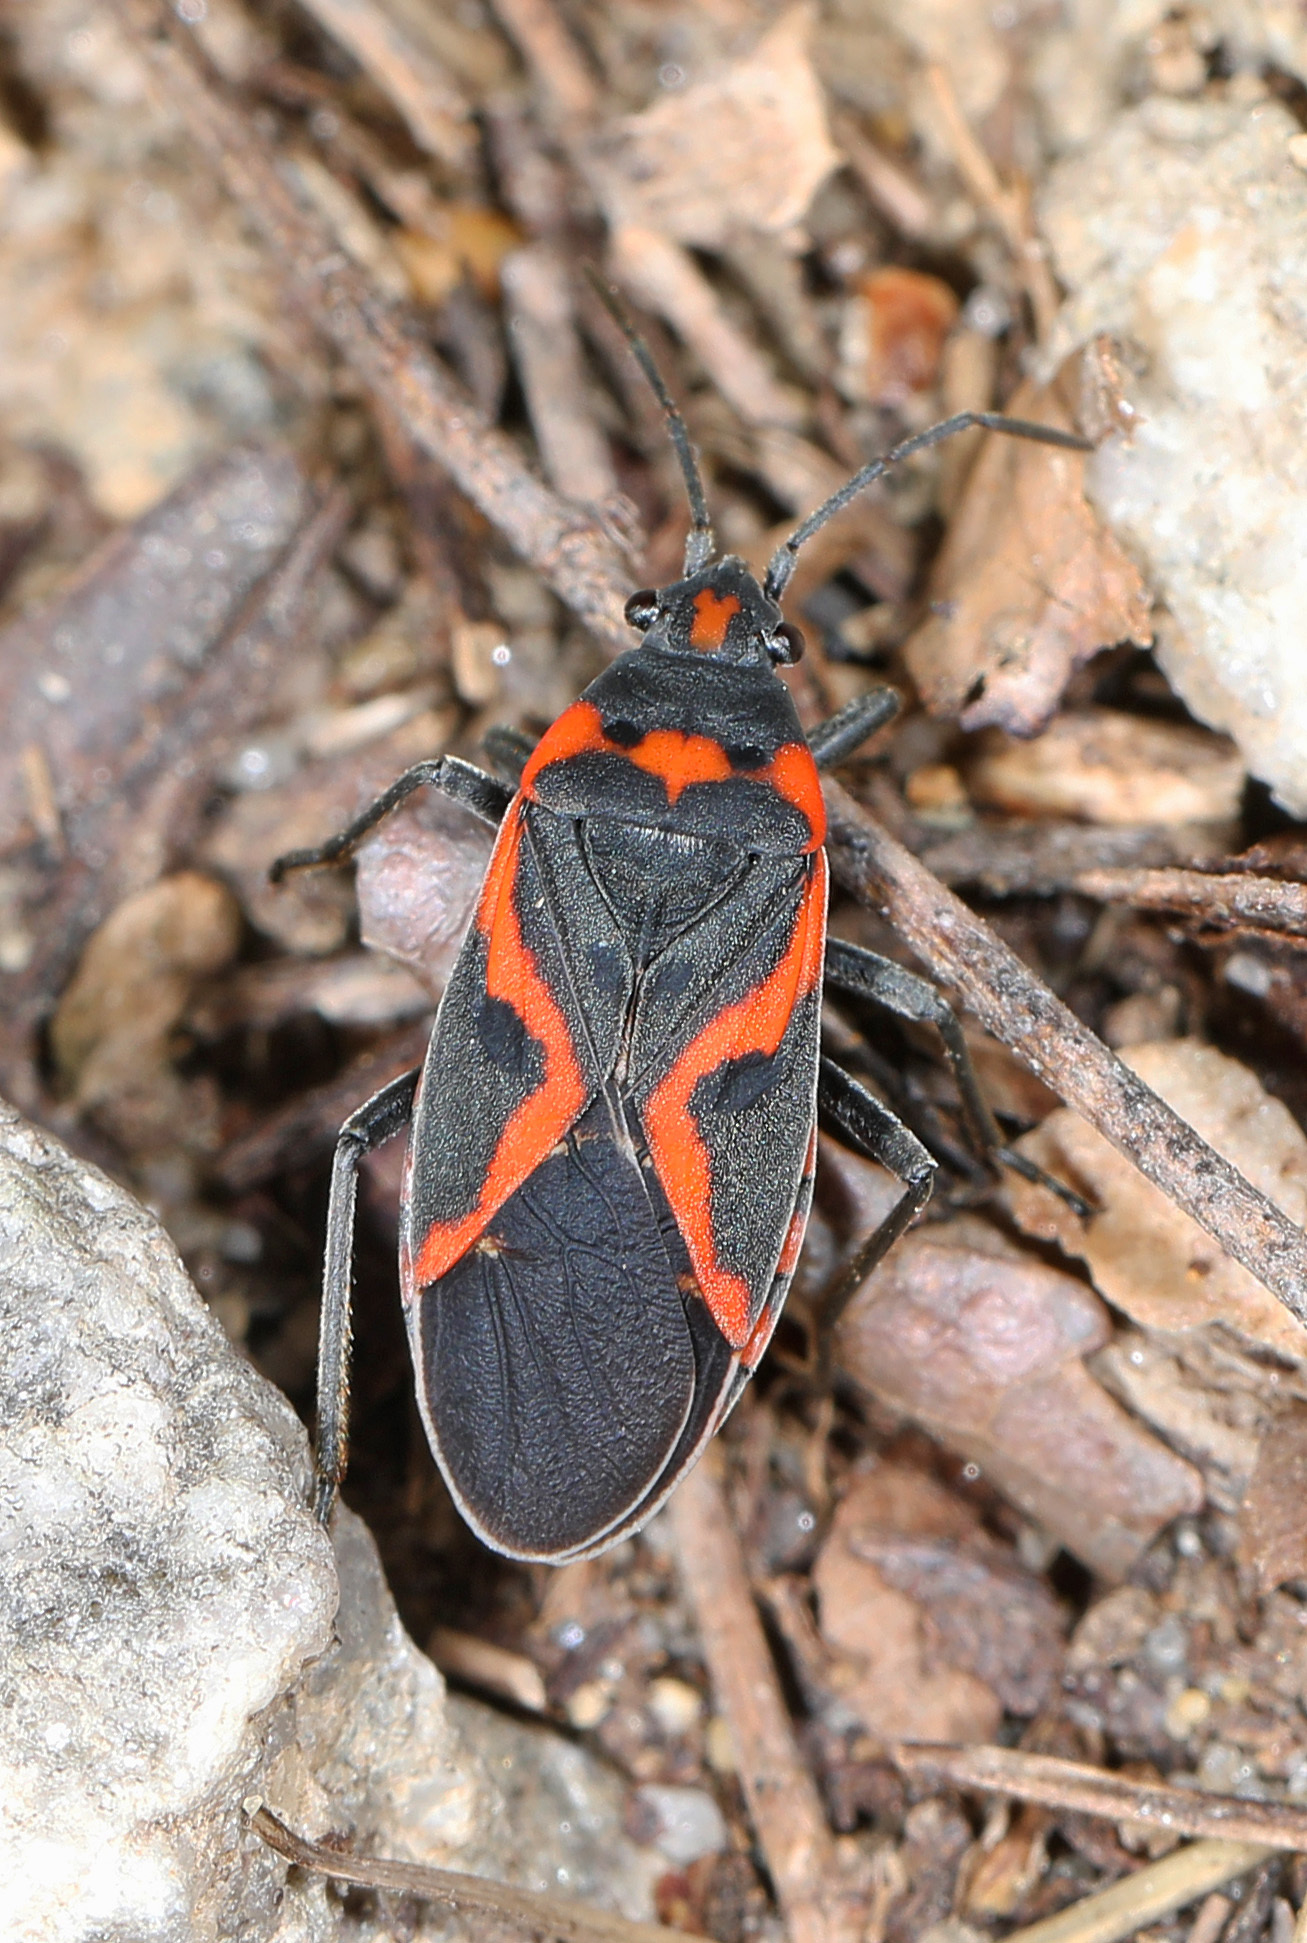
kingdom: Animalia
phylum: Arthropoda
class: Insecta
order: Hemiptera
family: Lygaeidae
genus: Lygaeus
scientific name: Lygaeus kalmii
